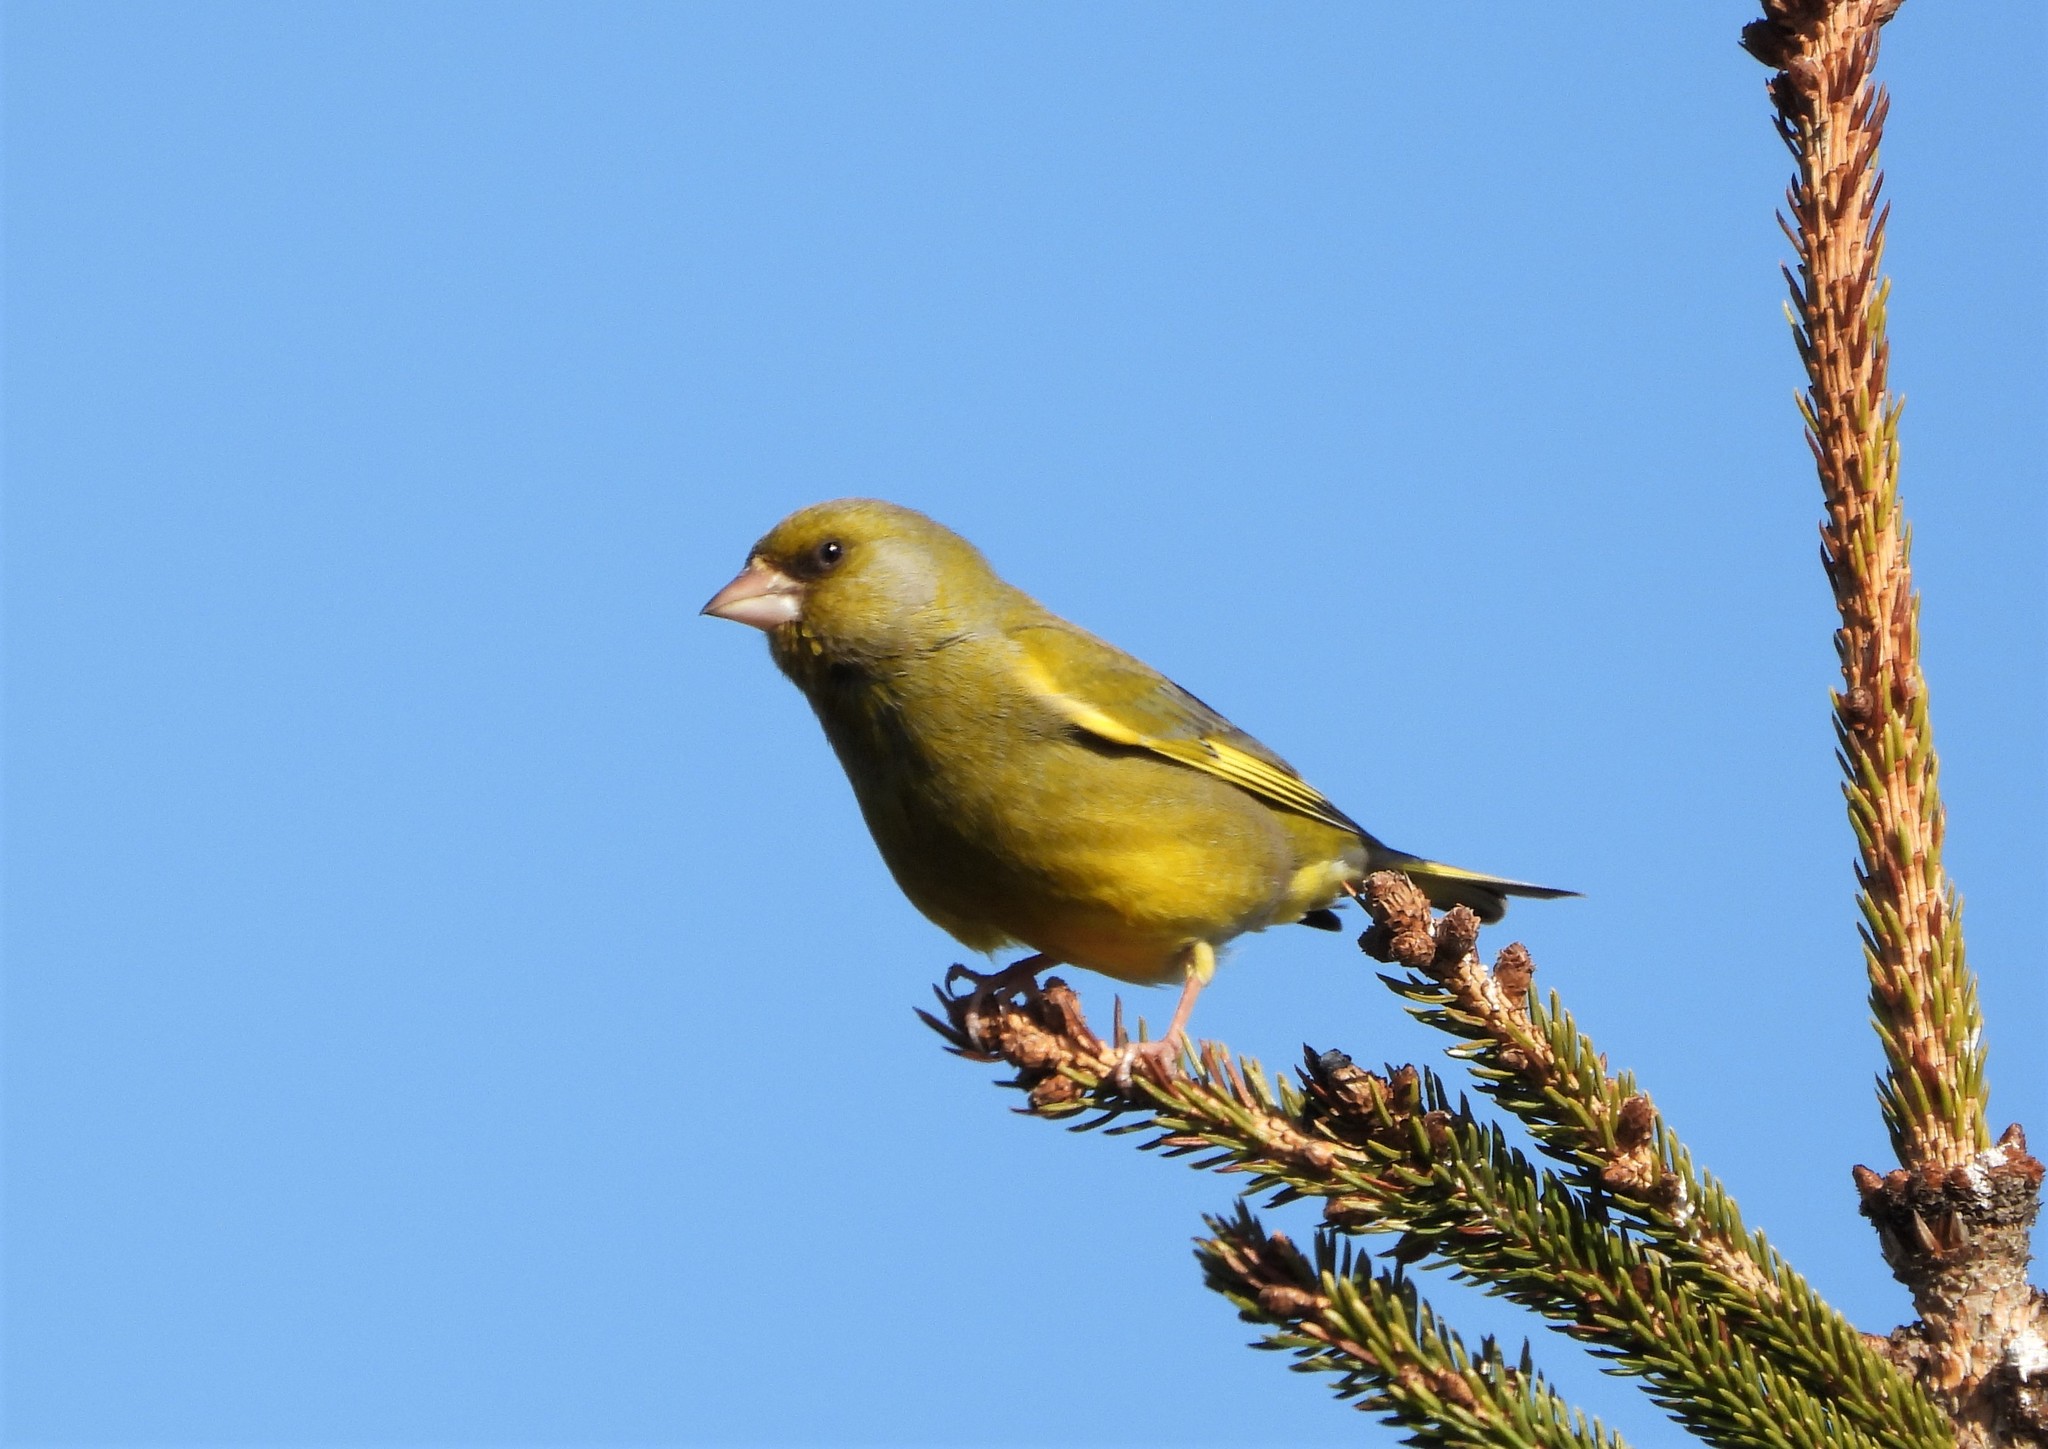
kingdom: Plantae
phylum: Tracheophyta
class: Liliopsida
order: Poales
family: Poaceae
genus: Chloris
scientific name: Chloris chloris
